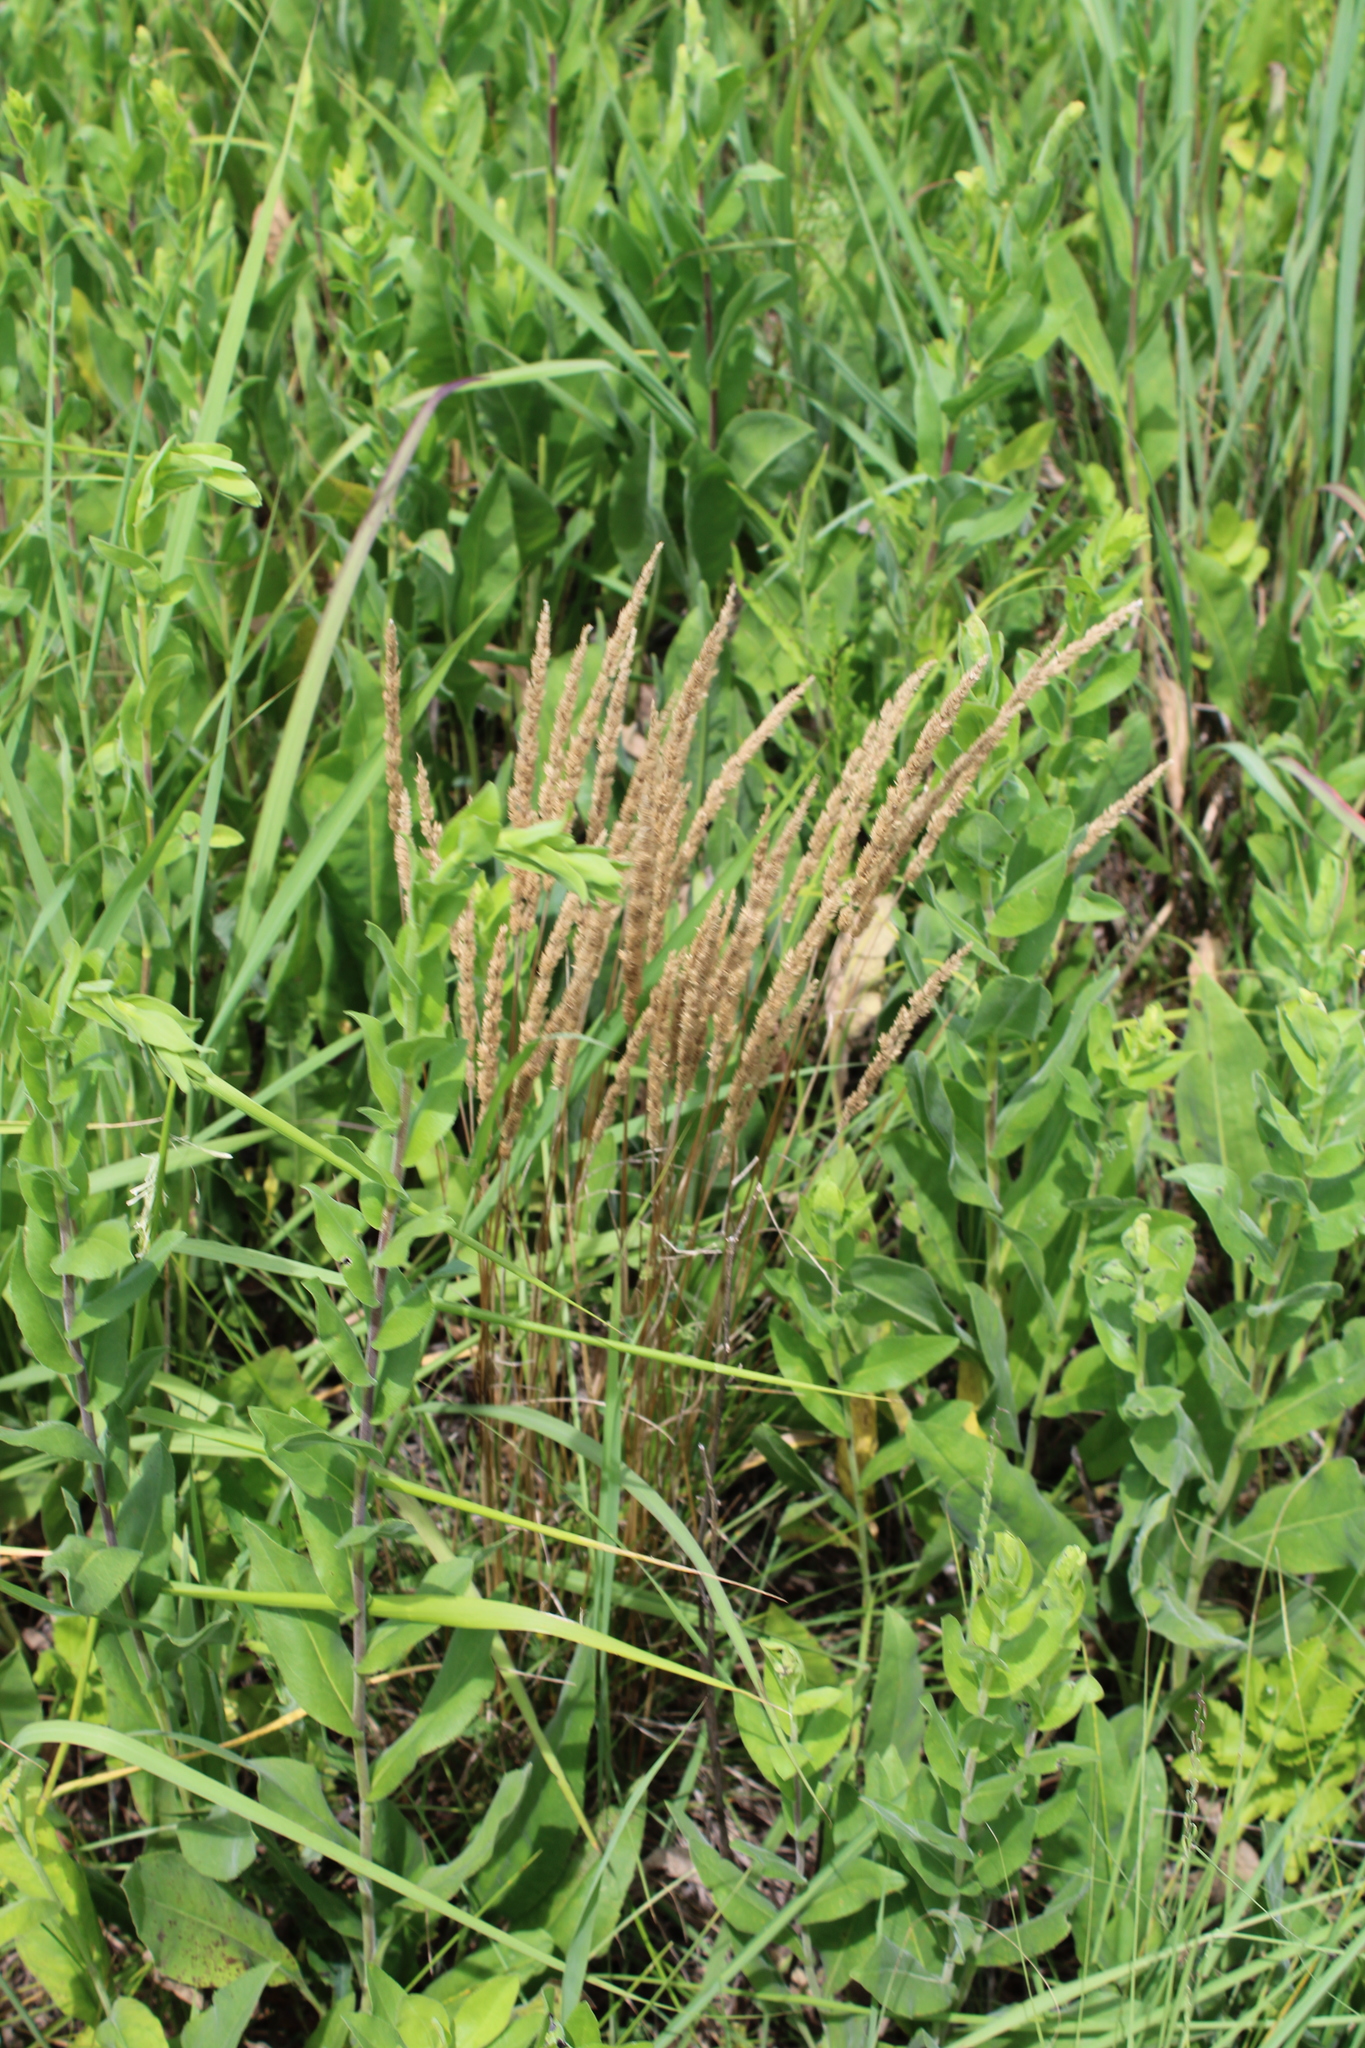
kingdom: Plantae
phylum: Tracheophyta
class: Liliopsida
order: Poales
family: Poaceae
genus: Koeleria
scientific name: Koeleria macrantha
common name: Crested hair-grass
